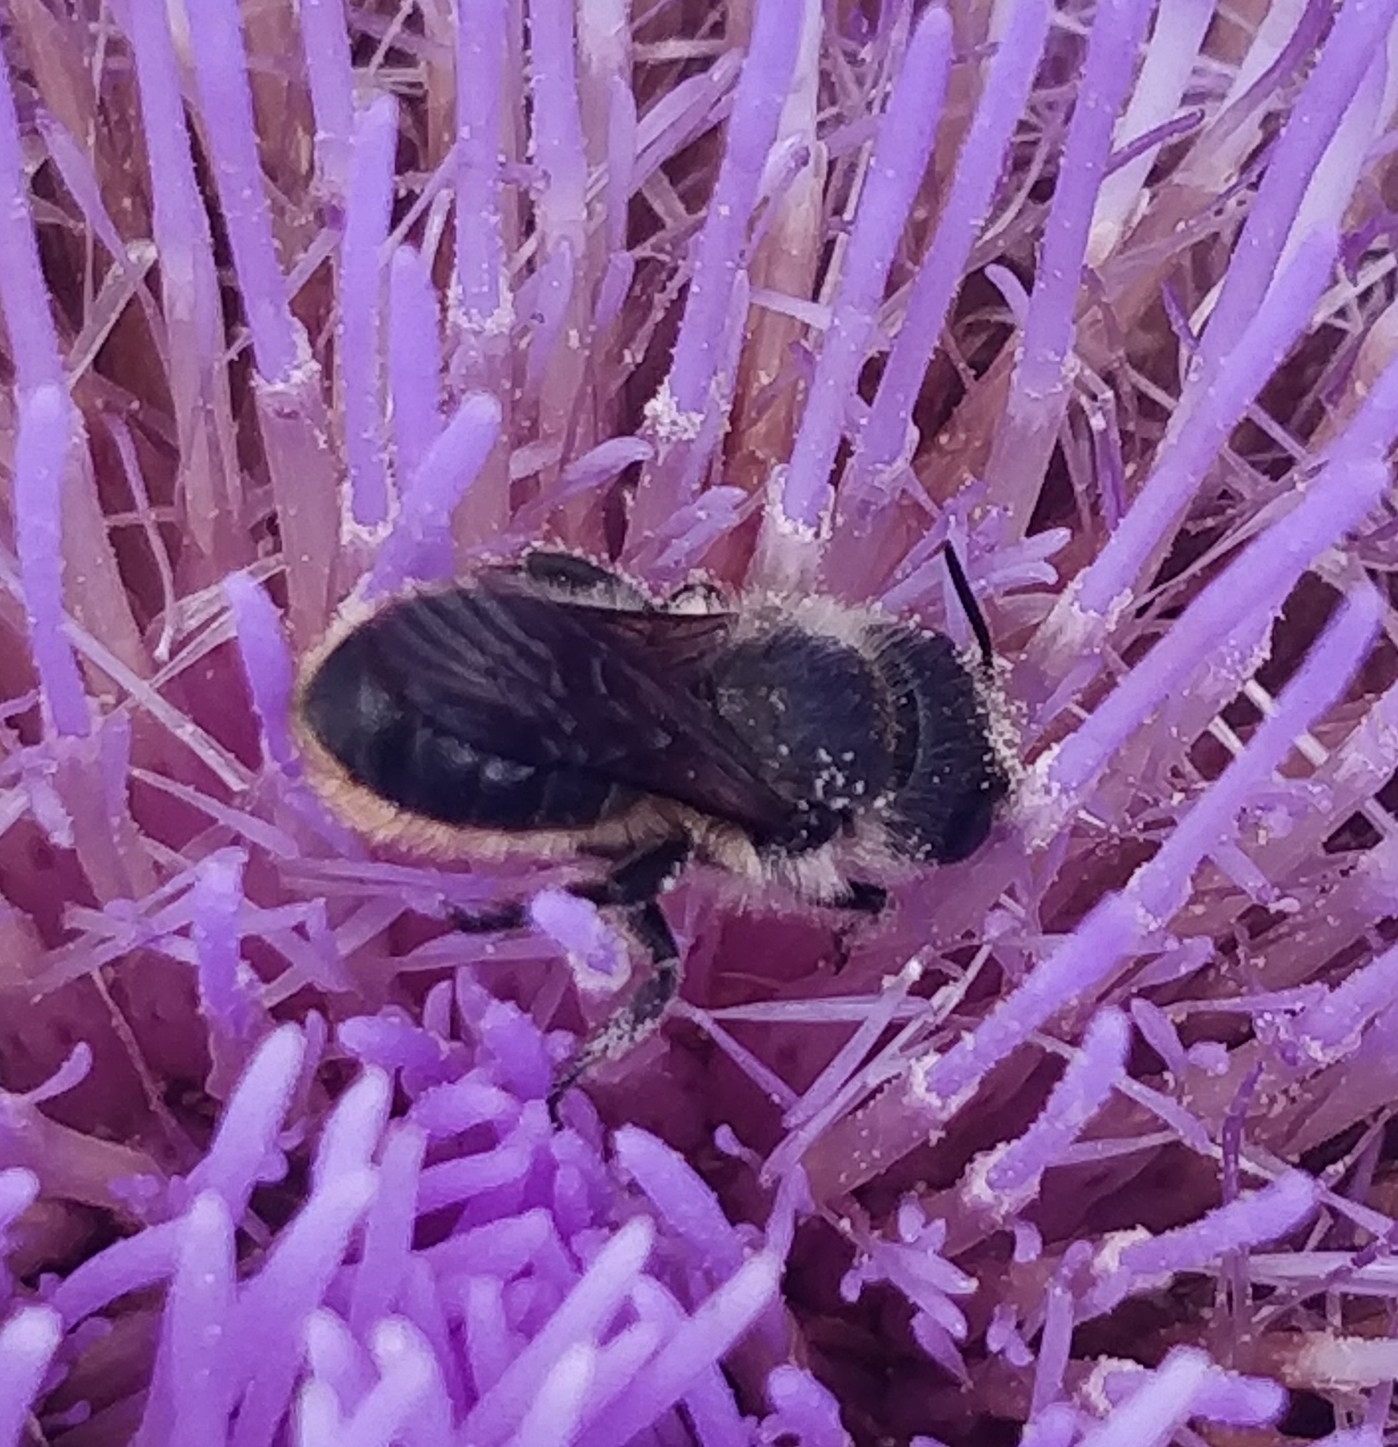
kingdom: Animalia
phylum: Arthropoda
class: Insecta
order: Hymenoptera
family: Megachilidae
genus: Osmia
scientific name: Osmia niveata
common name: Jersey mason bee
